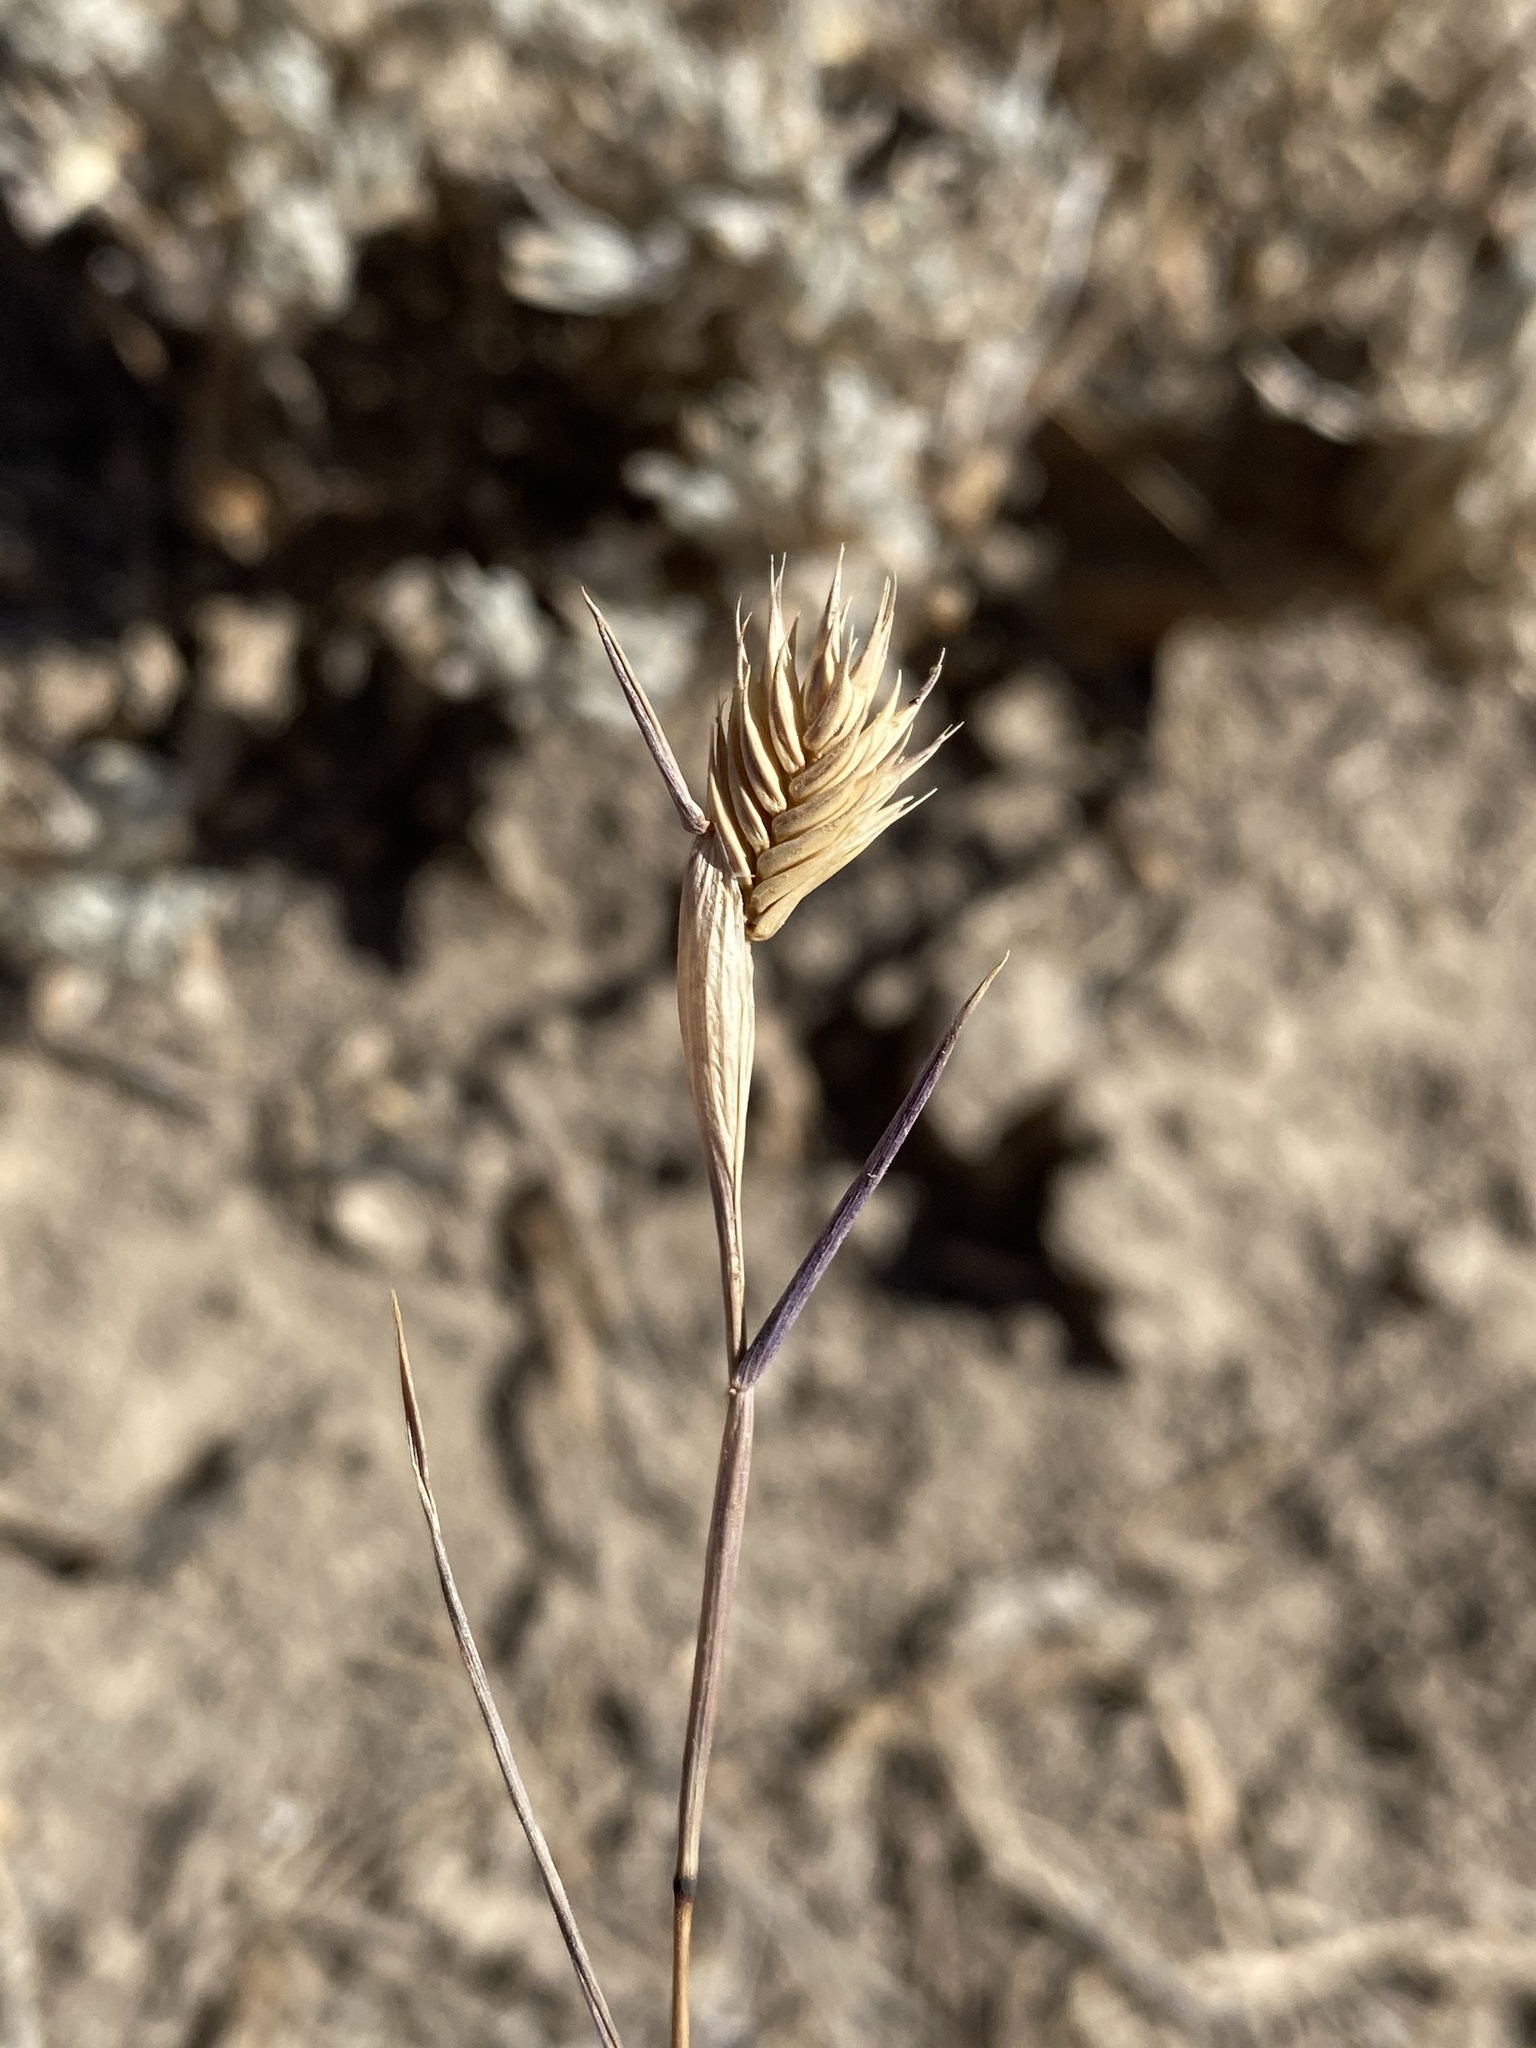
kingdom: Plantae
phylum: Tracheophyta
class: Liliopsida
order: Poales
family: Poaceae
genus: Eremopyrum
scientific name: Eremopyrum triticeum
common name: Annual wheatgrass
